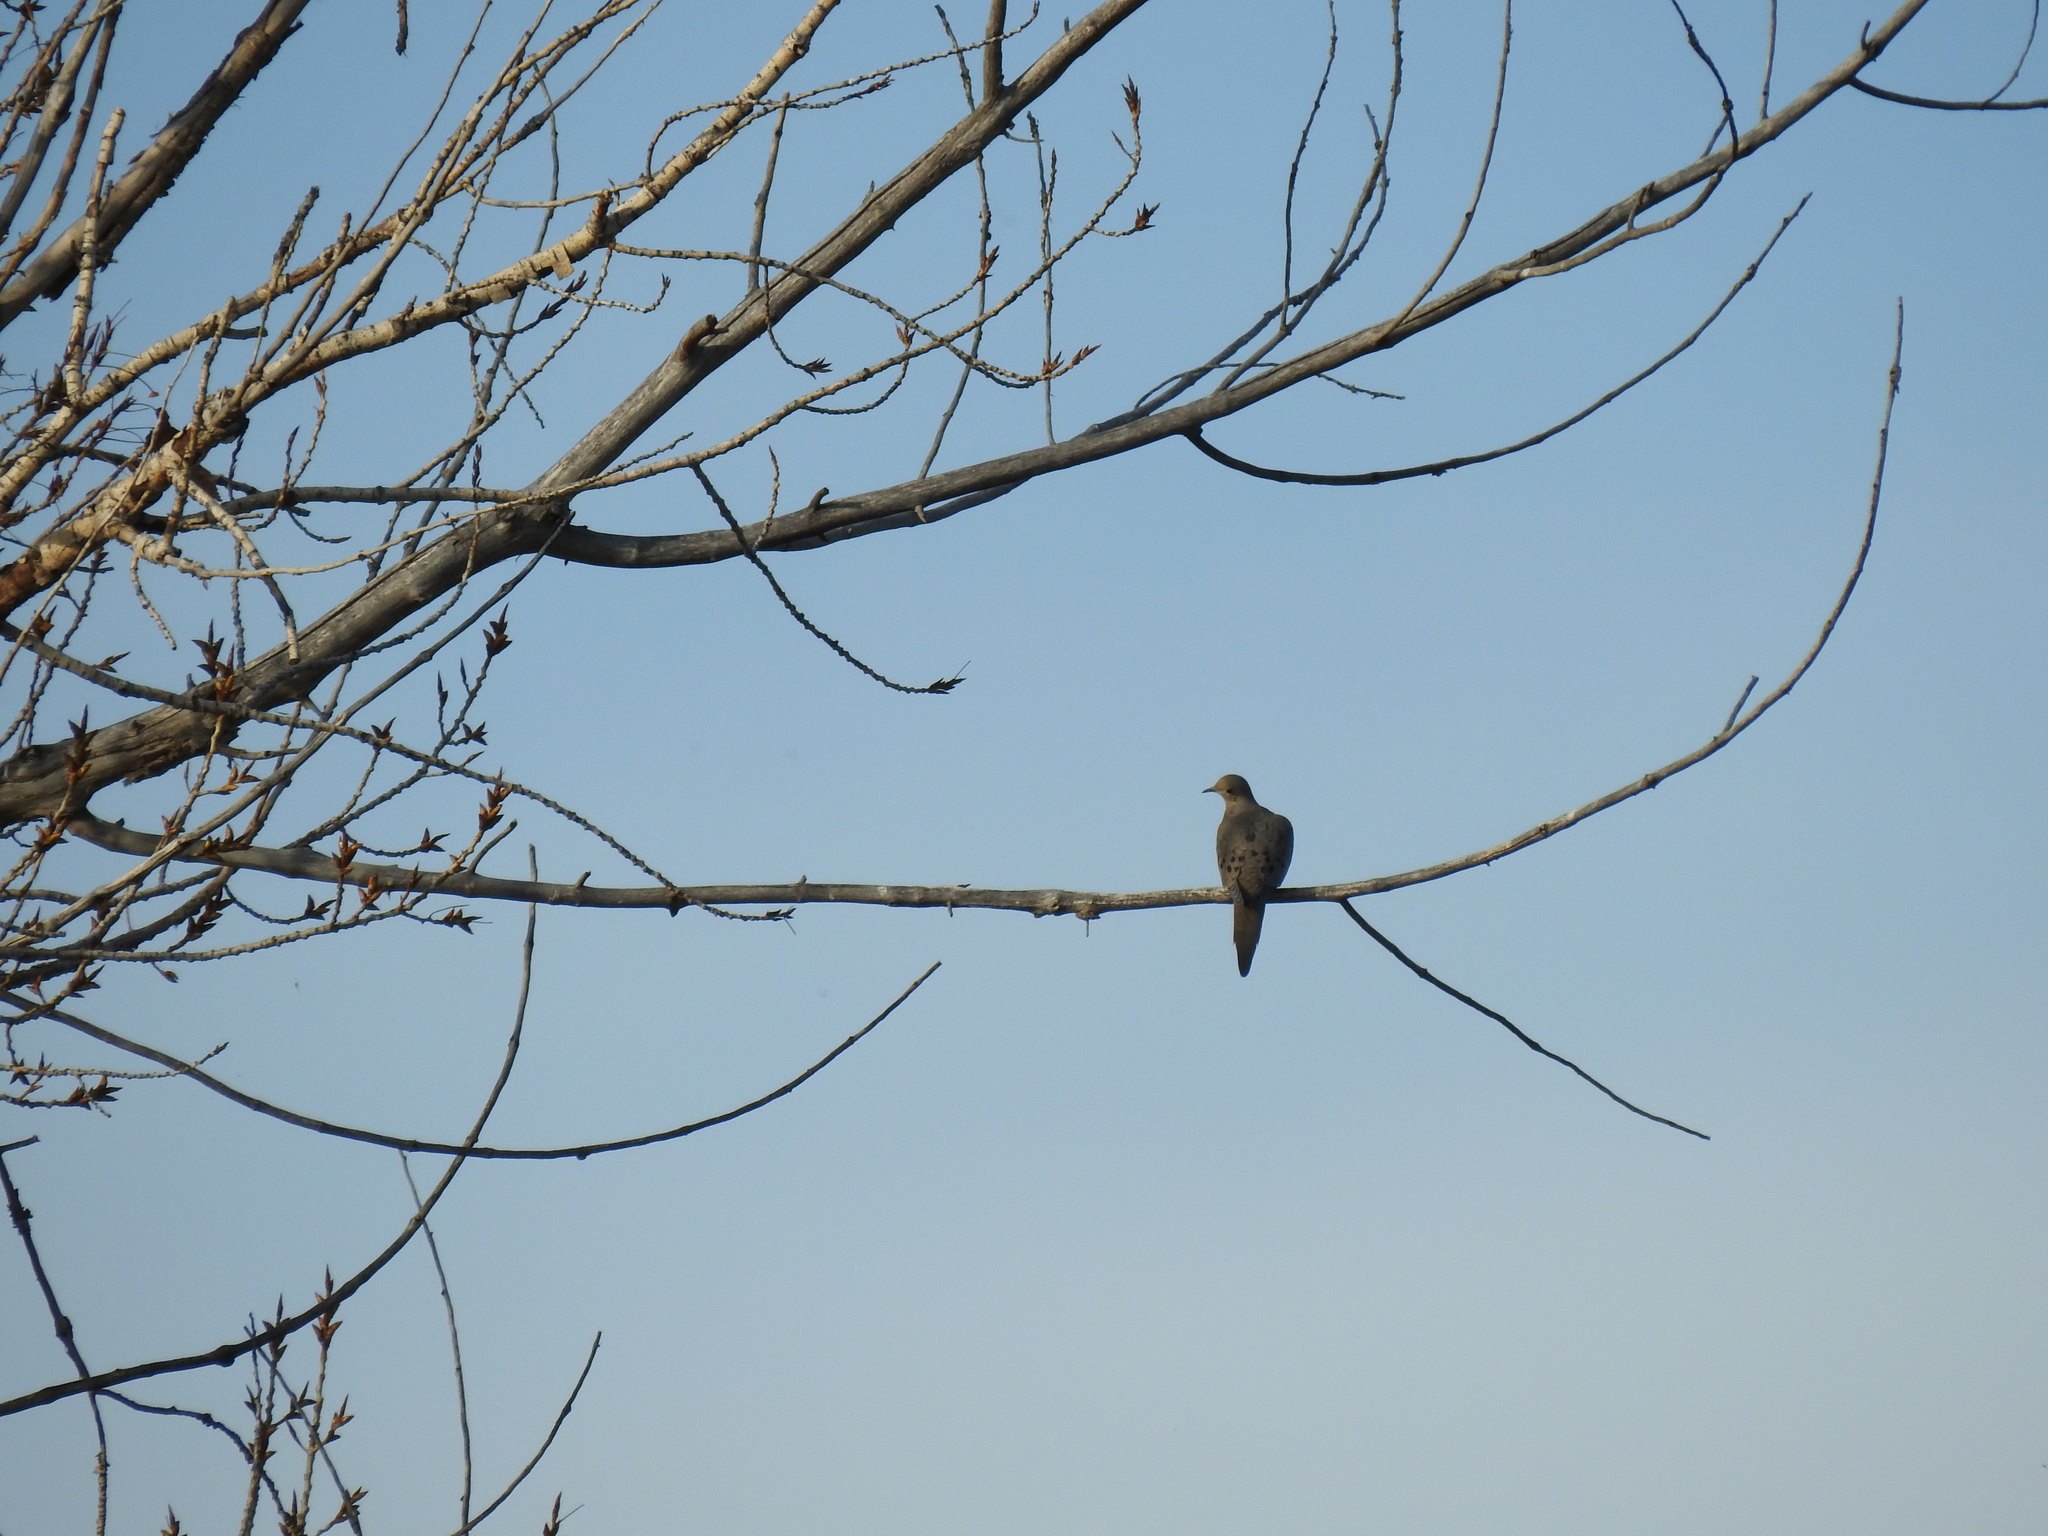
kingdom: Animalia
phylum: Chordata
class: Aves
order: Columbiformes
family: Columbidae
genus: Zenaida
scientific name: Zenaida macroura
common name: Mourning dove
